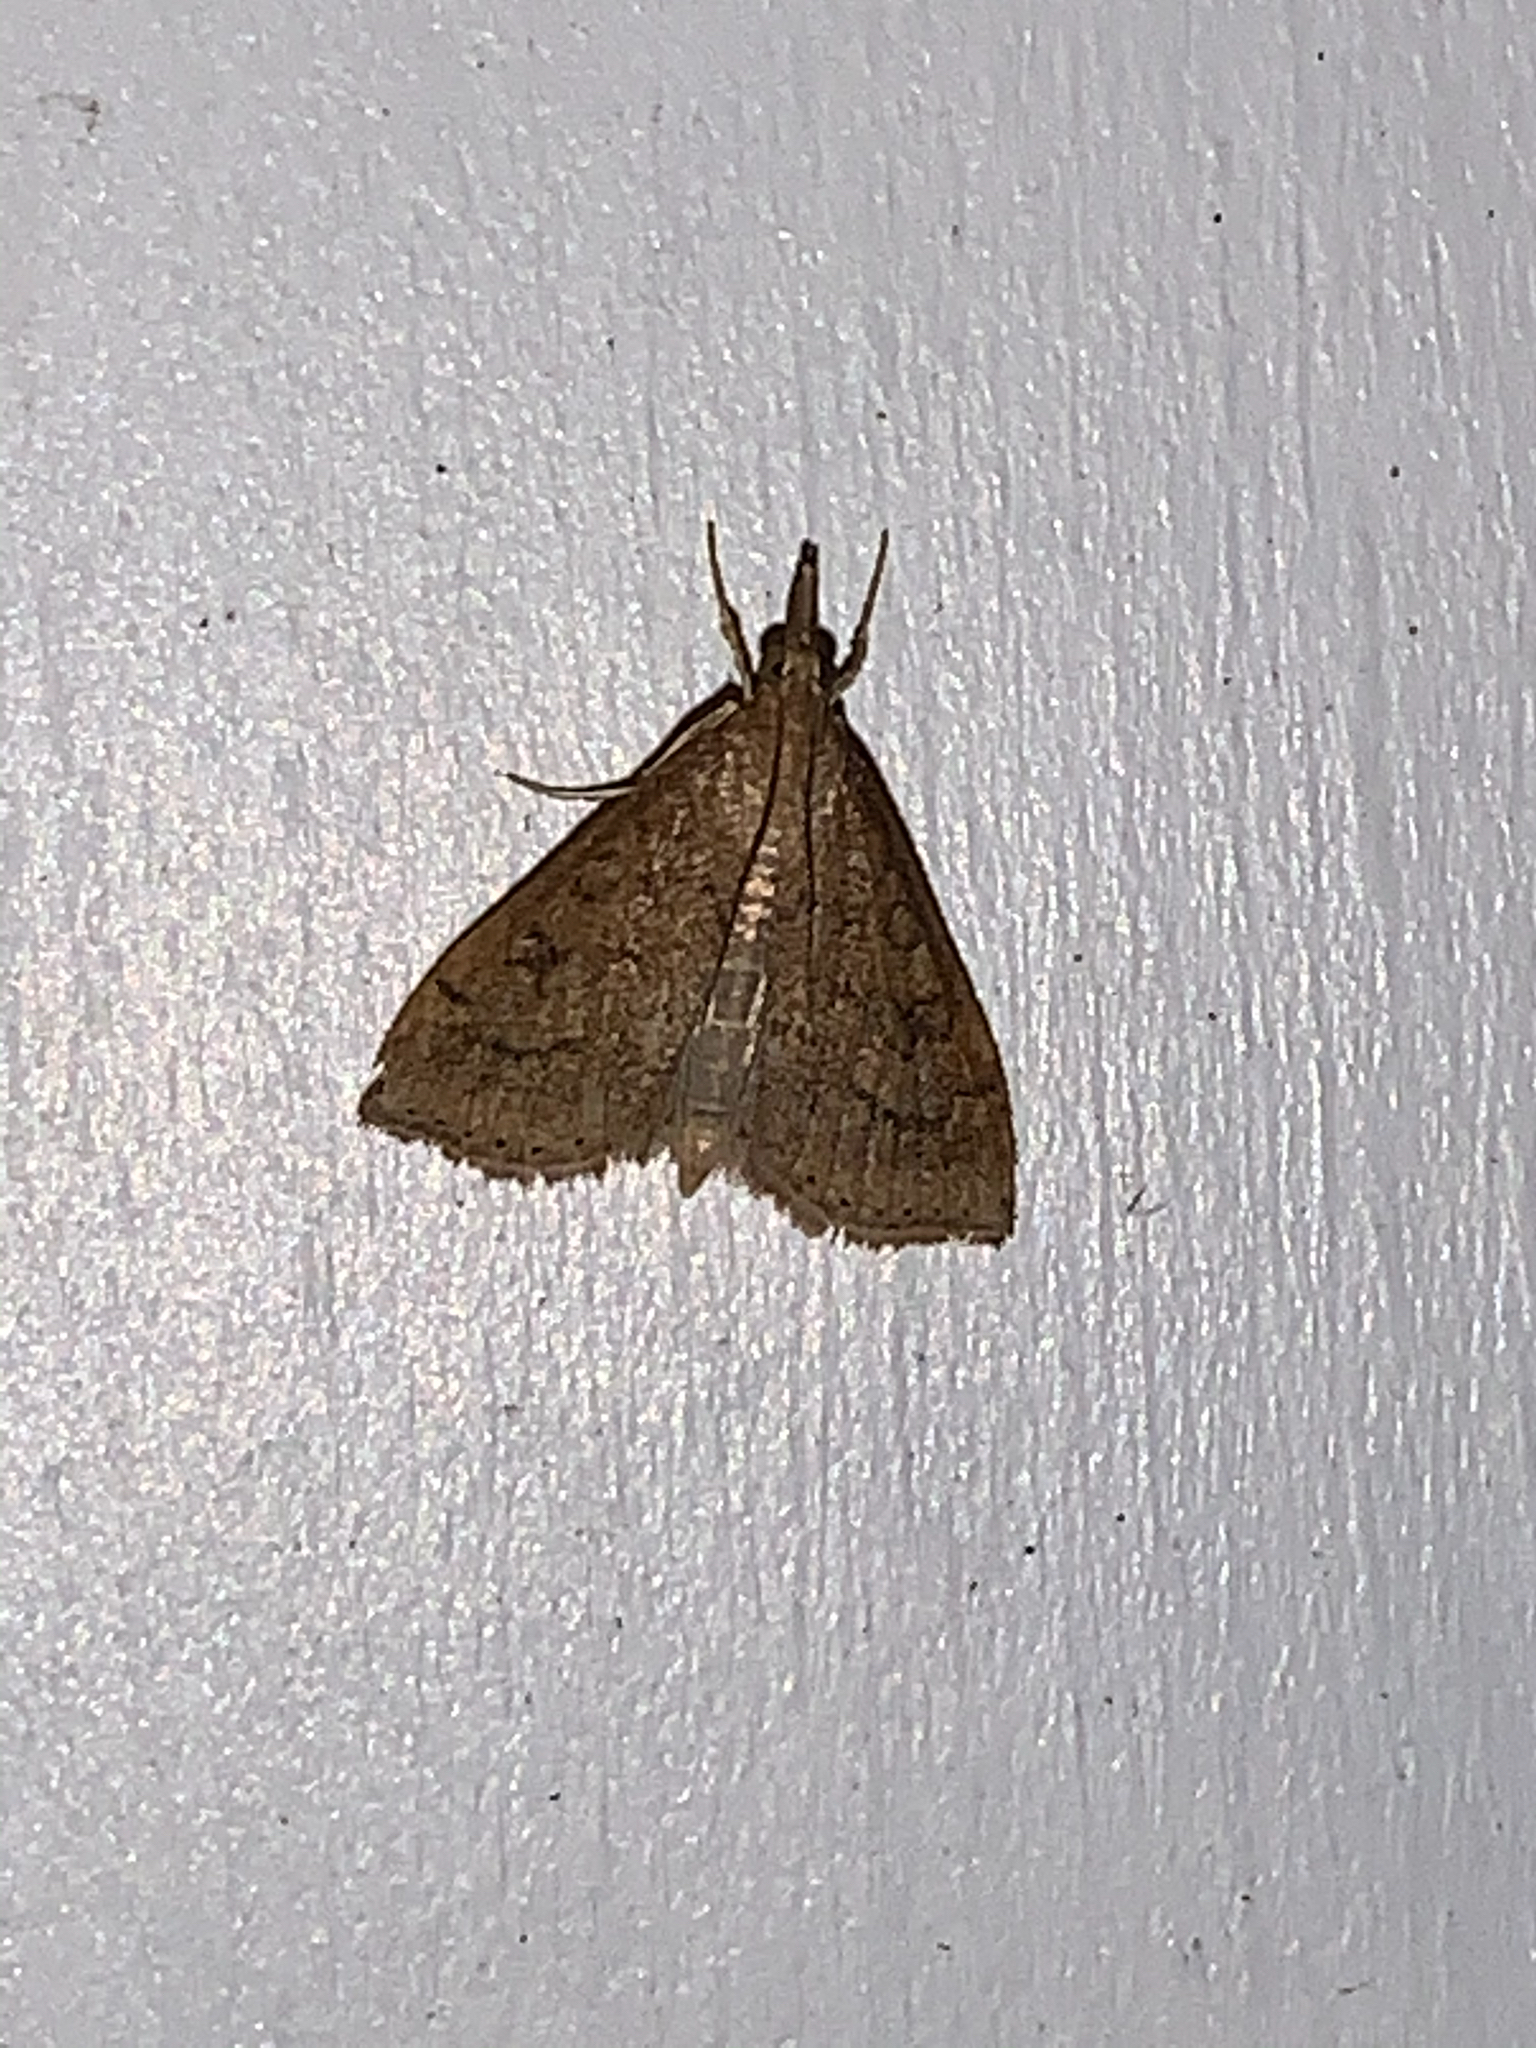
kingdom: Animalia
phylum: Arthropoda
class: Insecta
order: Lepidoptera
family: Crambidae
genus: Udea
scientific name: Udea rubigalis
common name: Celery leaftier moth
